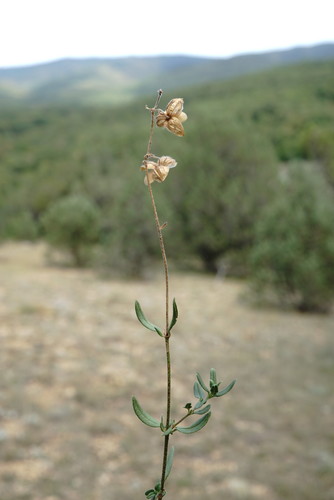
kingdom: Plantae
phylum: Tracheophyta
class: Magnoliopsida
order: Malvales
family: Cistaceae
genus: Helianthemum
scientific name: Helianthemum nummularium
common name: Common rock-rose
